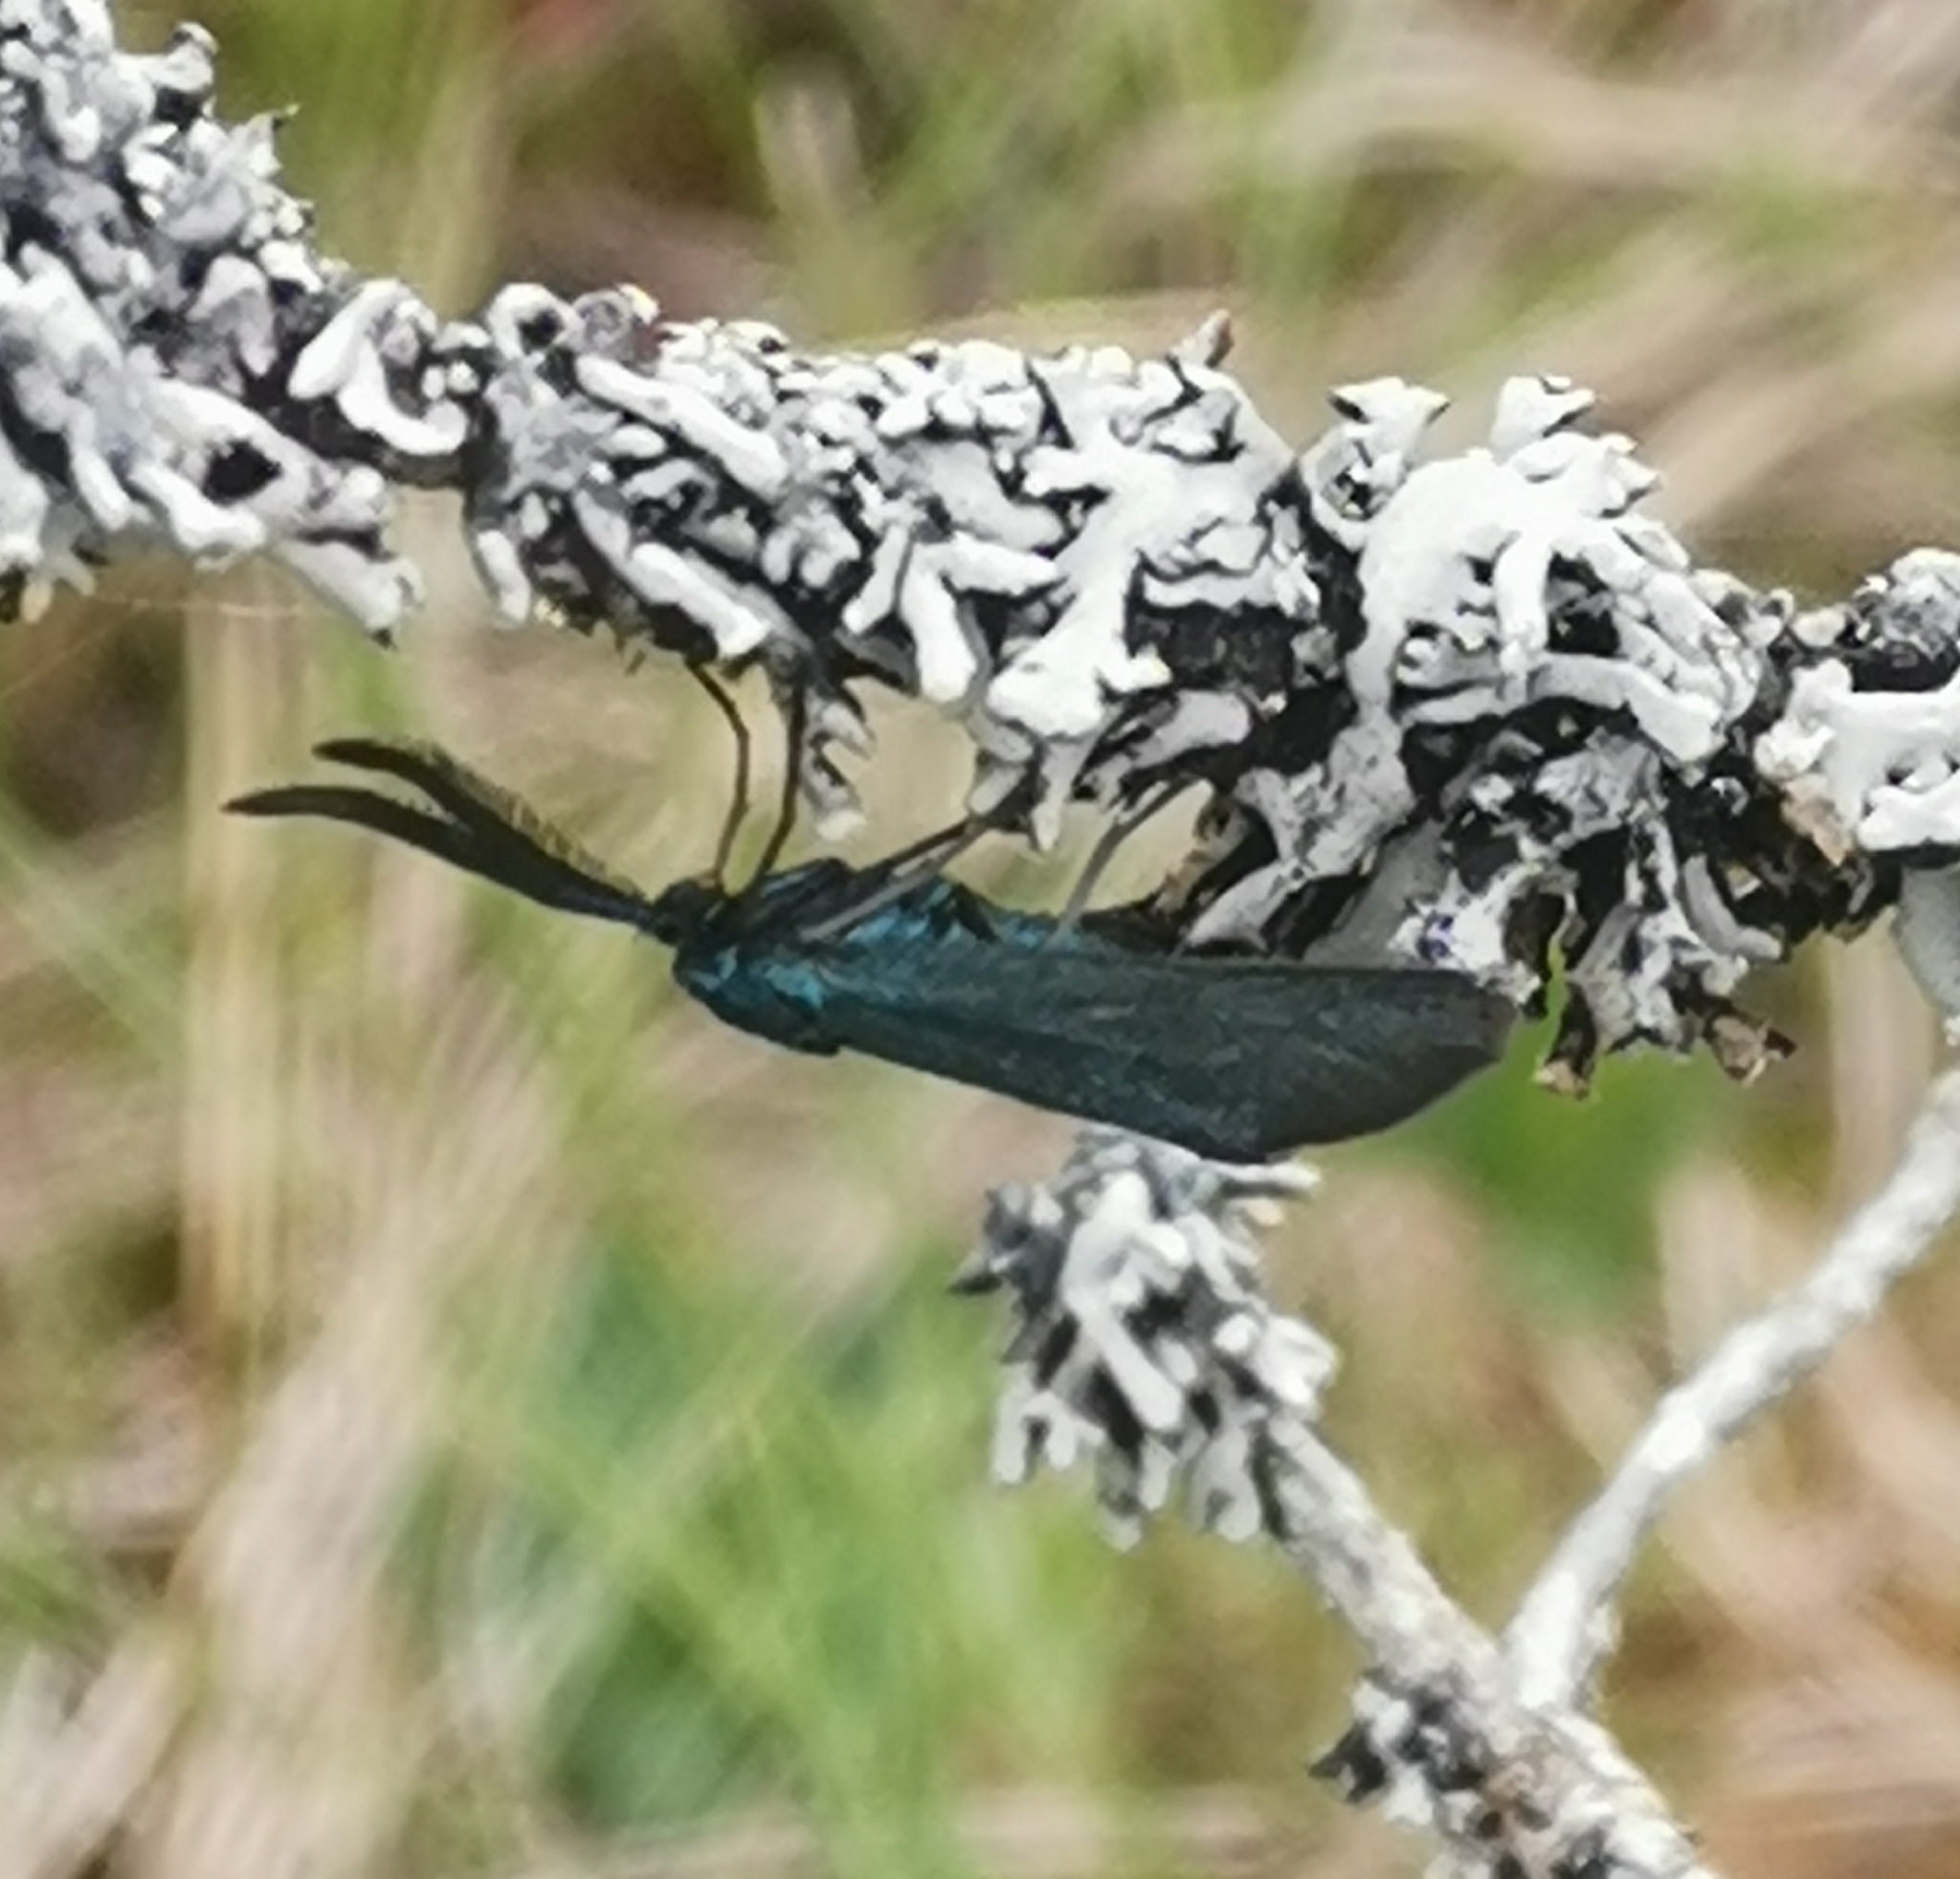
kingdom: Animalia
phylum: Arthropoda
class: Insecta
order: Lepidoptera
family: Zygaenidae
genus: Adscita
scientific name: Adscita statices
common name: Forester
